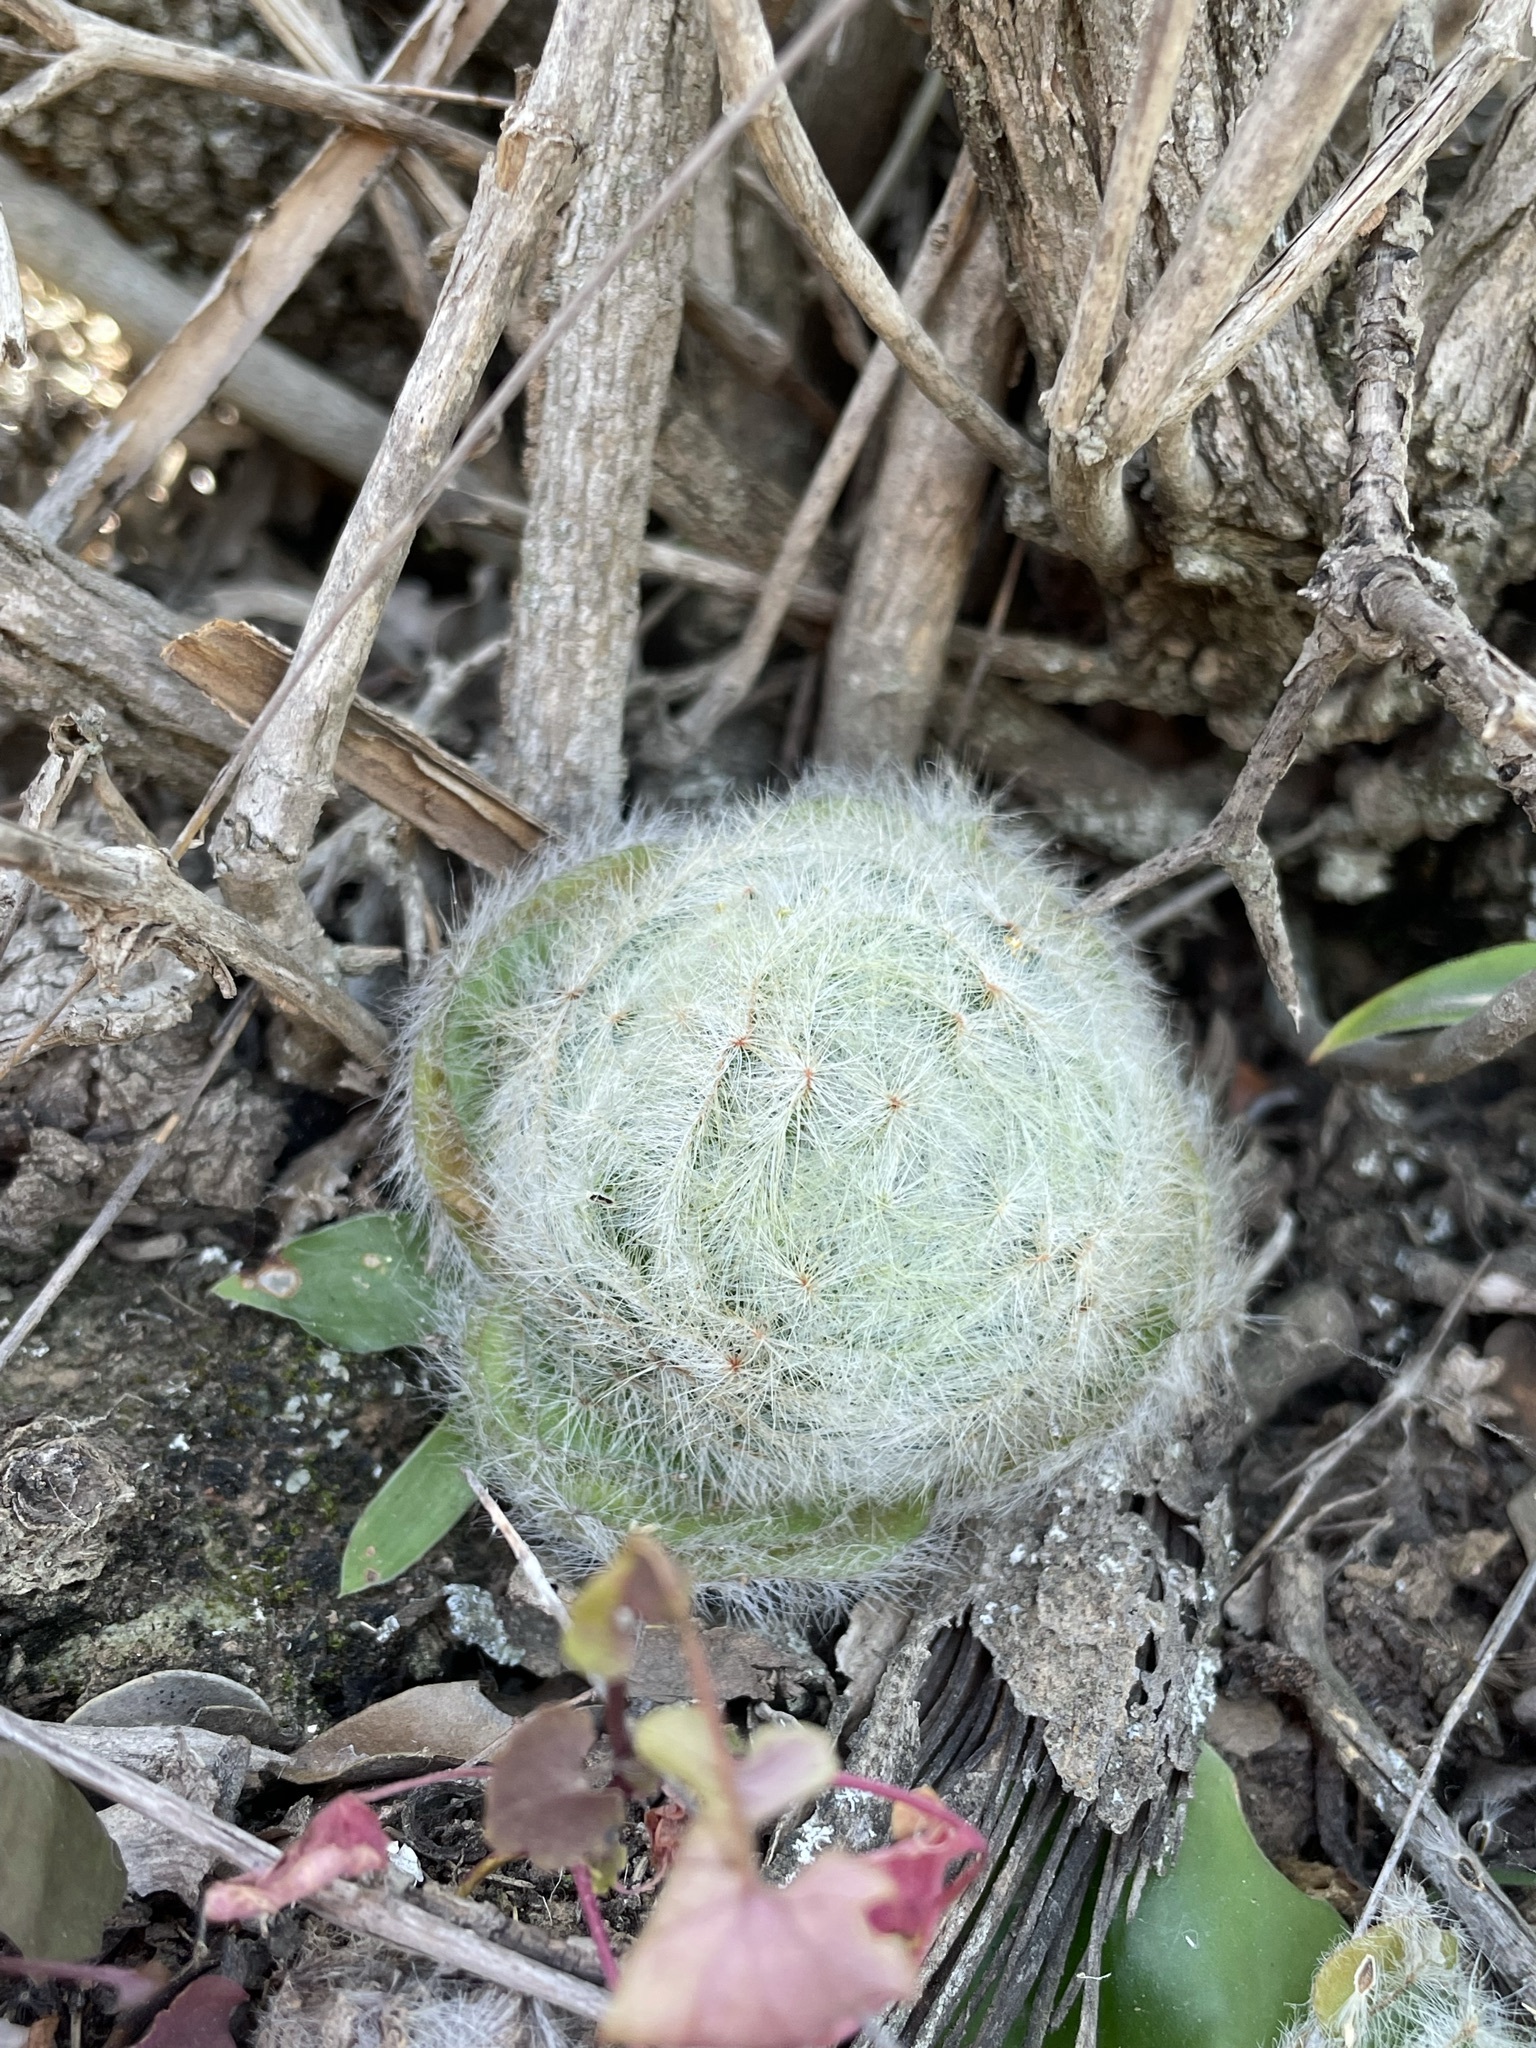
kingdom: Plantae
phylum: Tracheophyta
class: Magnoliopsida
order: Saxifragales
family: Crassulaceae
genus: Crassula
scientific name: Crassula barbata
